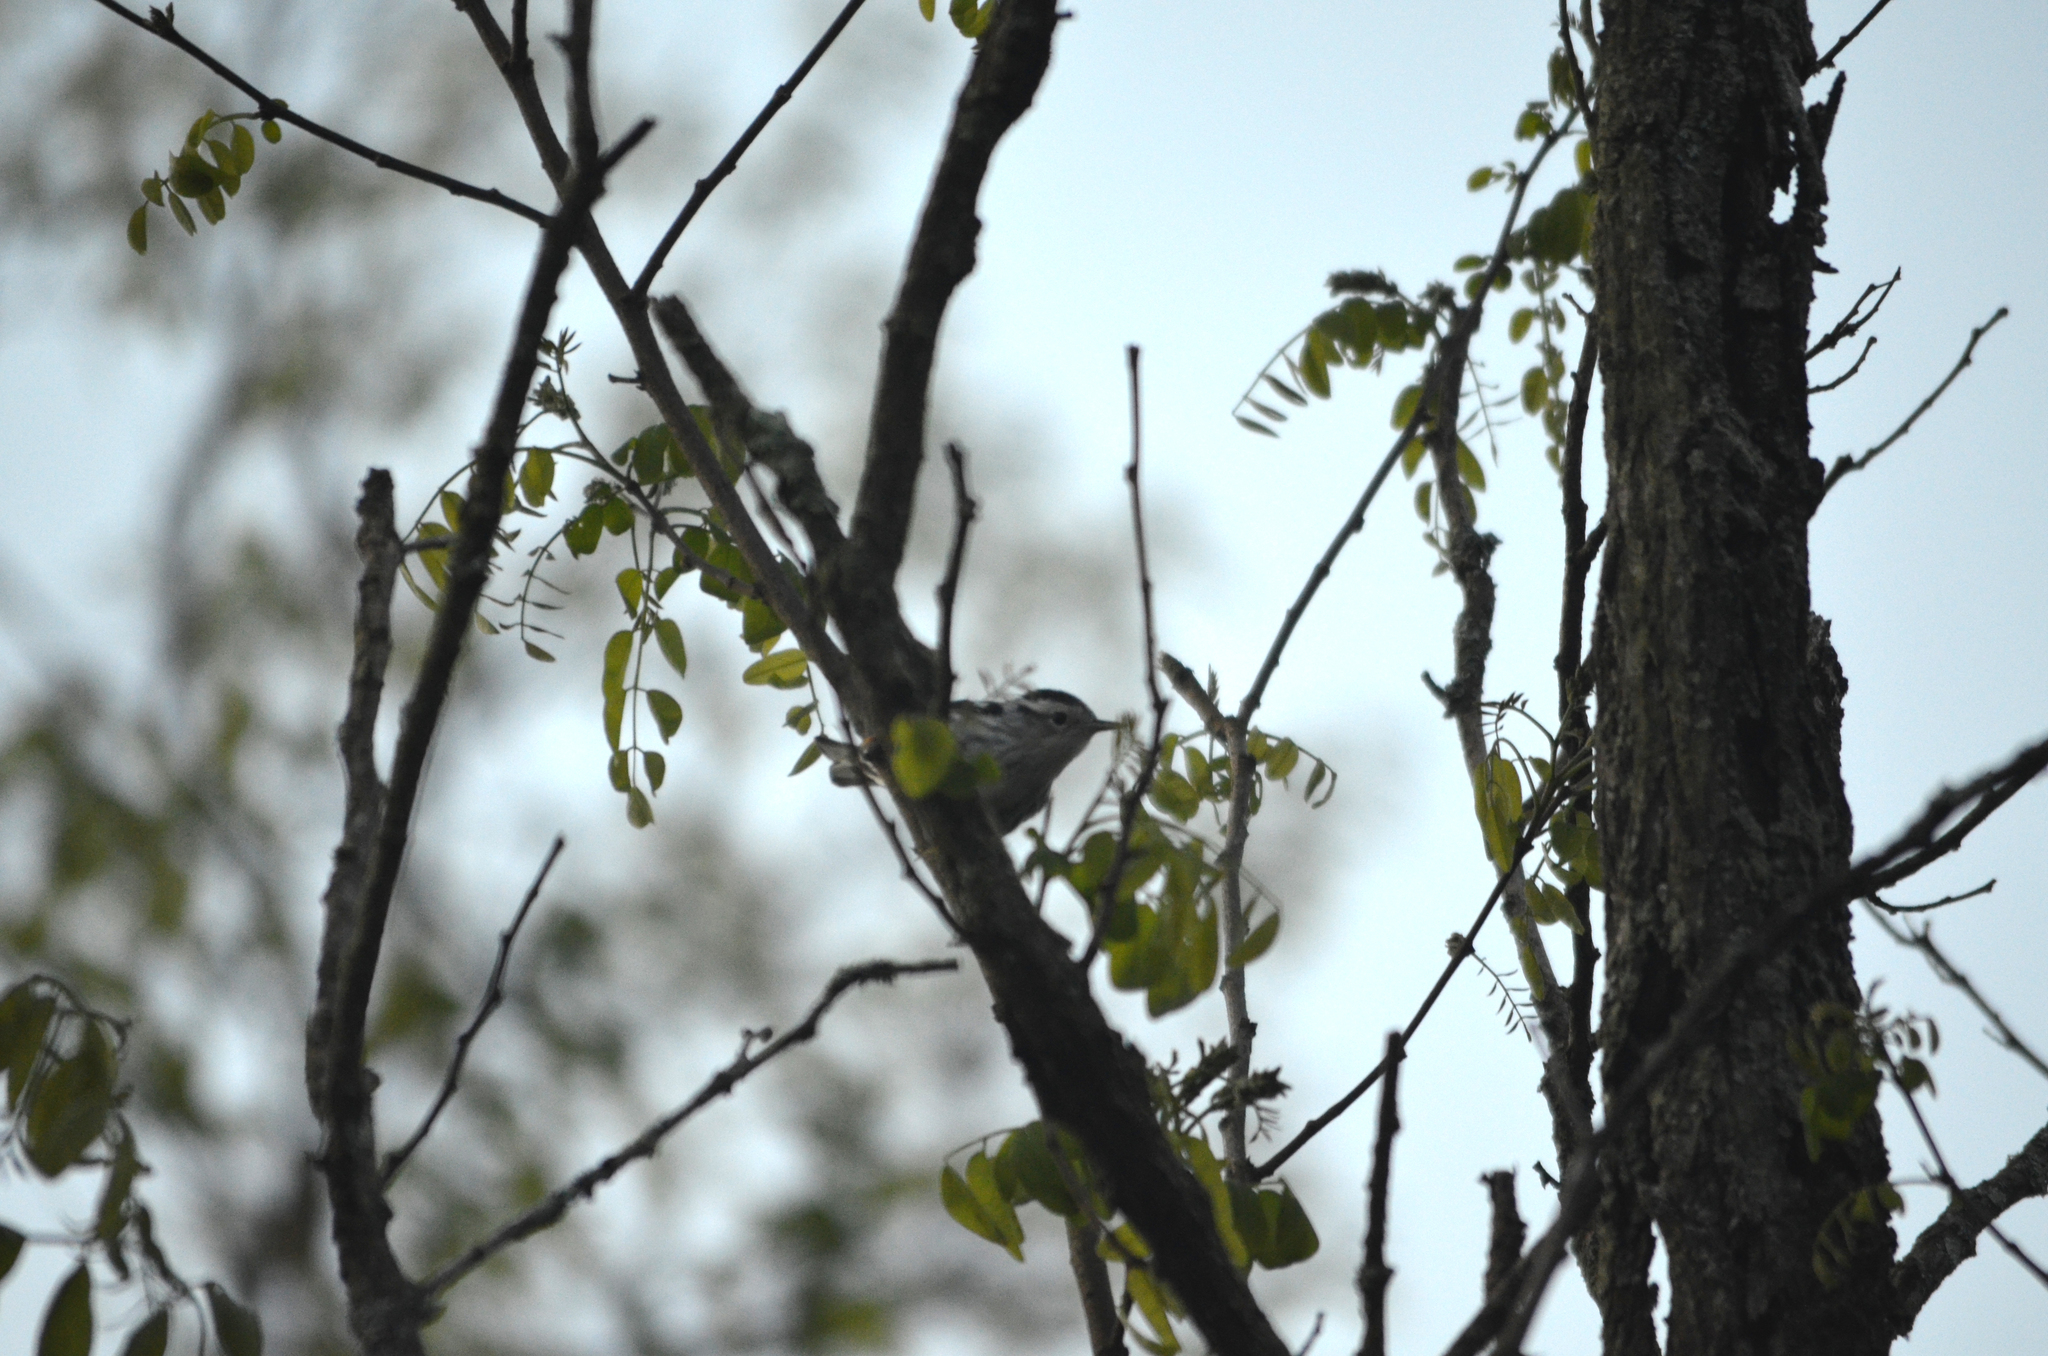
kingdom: Animalia
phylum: Chordata
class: Aves
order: Passeriformes
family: Parulidae
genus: Mniotilta
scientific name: Mniotilta varia
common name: Black-and-white warbler
